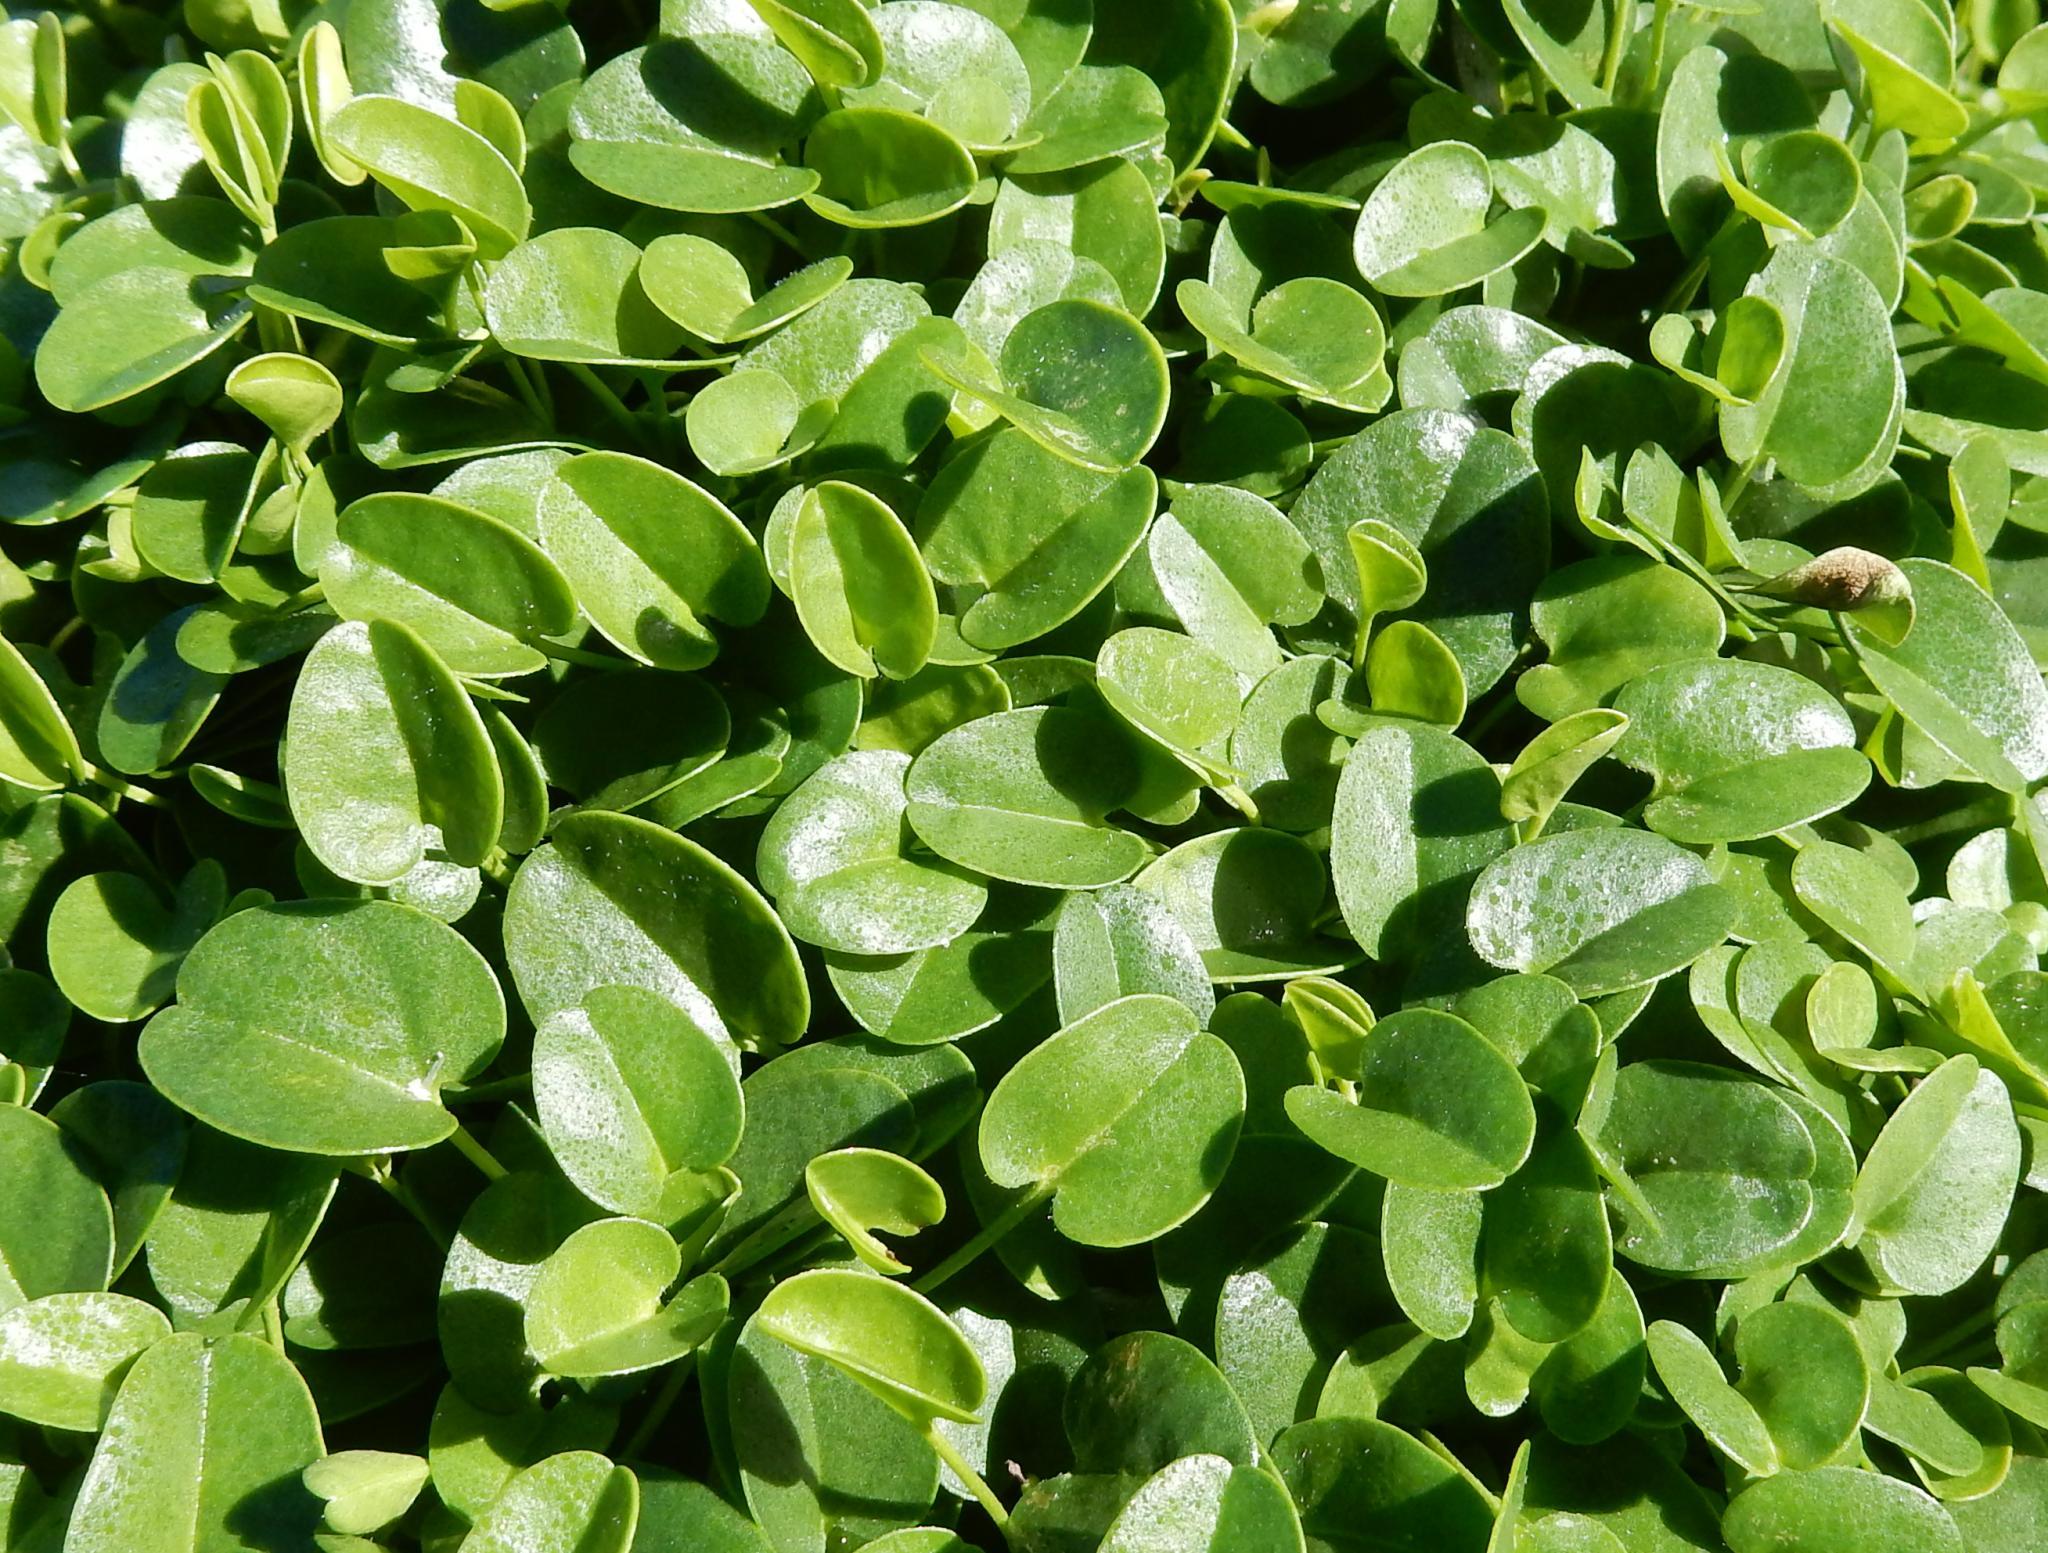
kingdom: Plantae
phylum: Tracheophyta
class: Magnoliopsida
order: Solanales
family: Convolvulaceae
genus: Falkia
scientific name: Falkia repens
